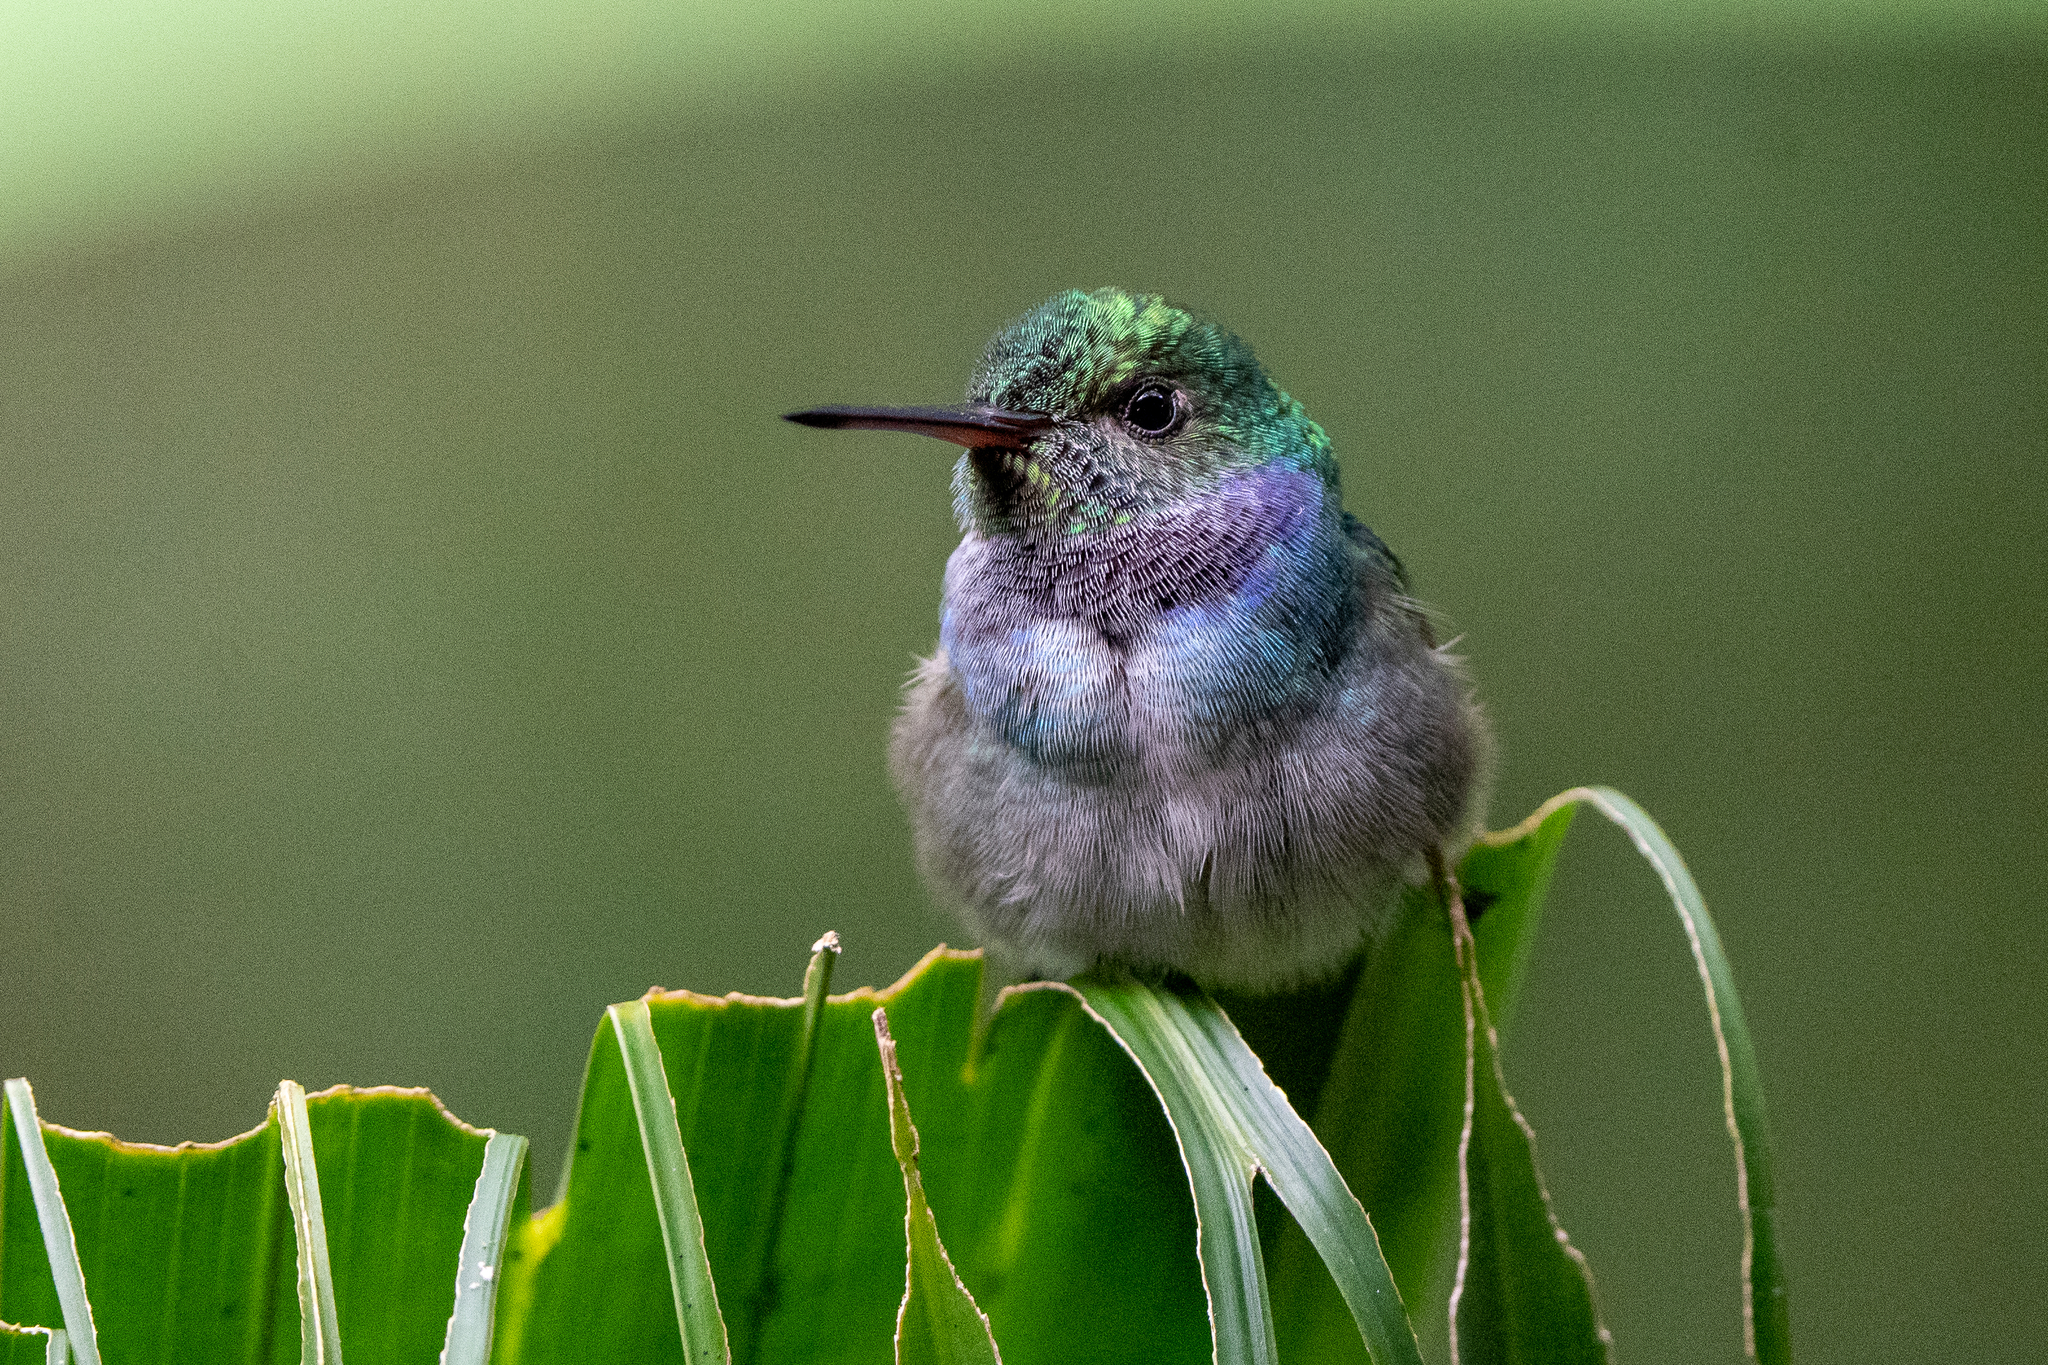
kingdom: Animalia
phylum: Chordata
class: Aves
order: Apodiformes
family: Trochilidae
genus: Polyerata
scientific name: Polyerata amabilis
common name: Blue-chested hummingbird
